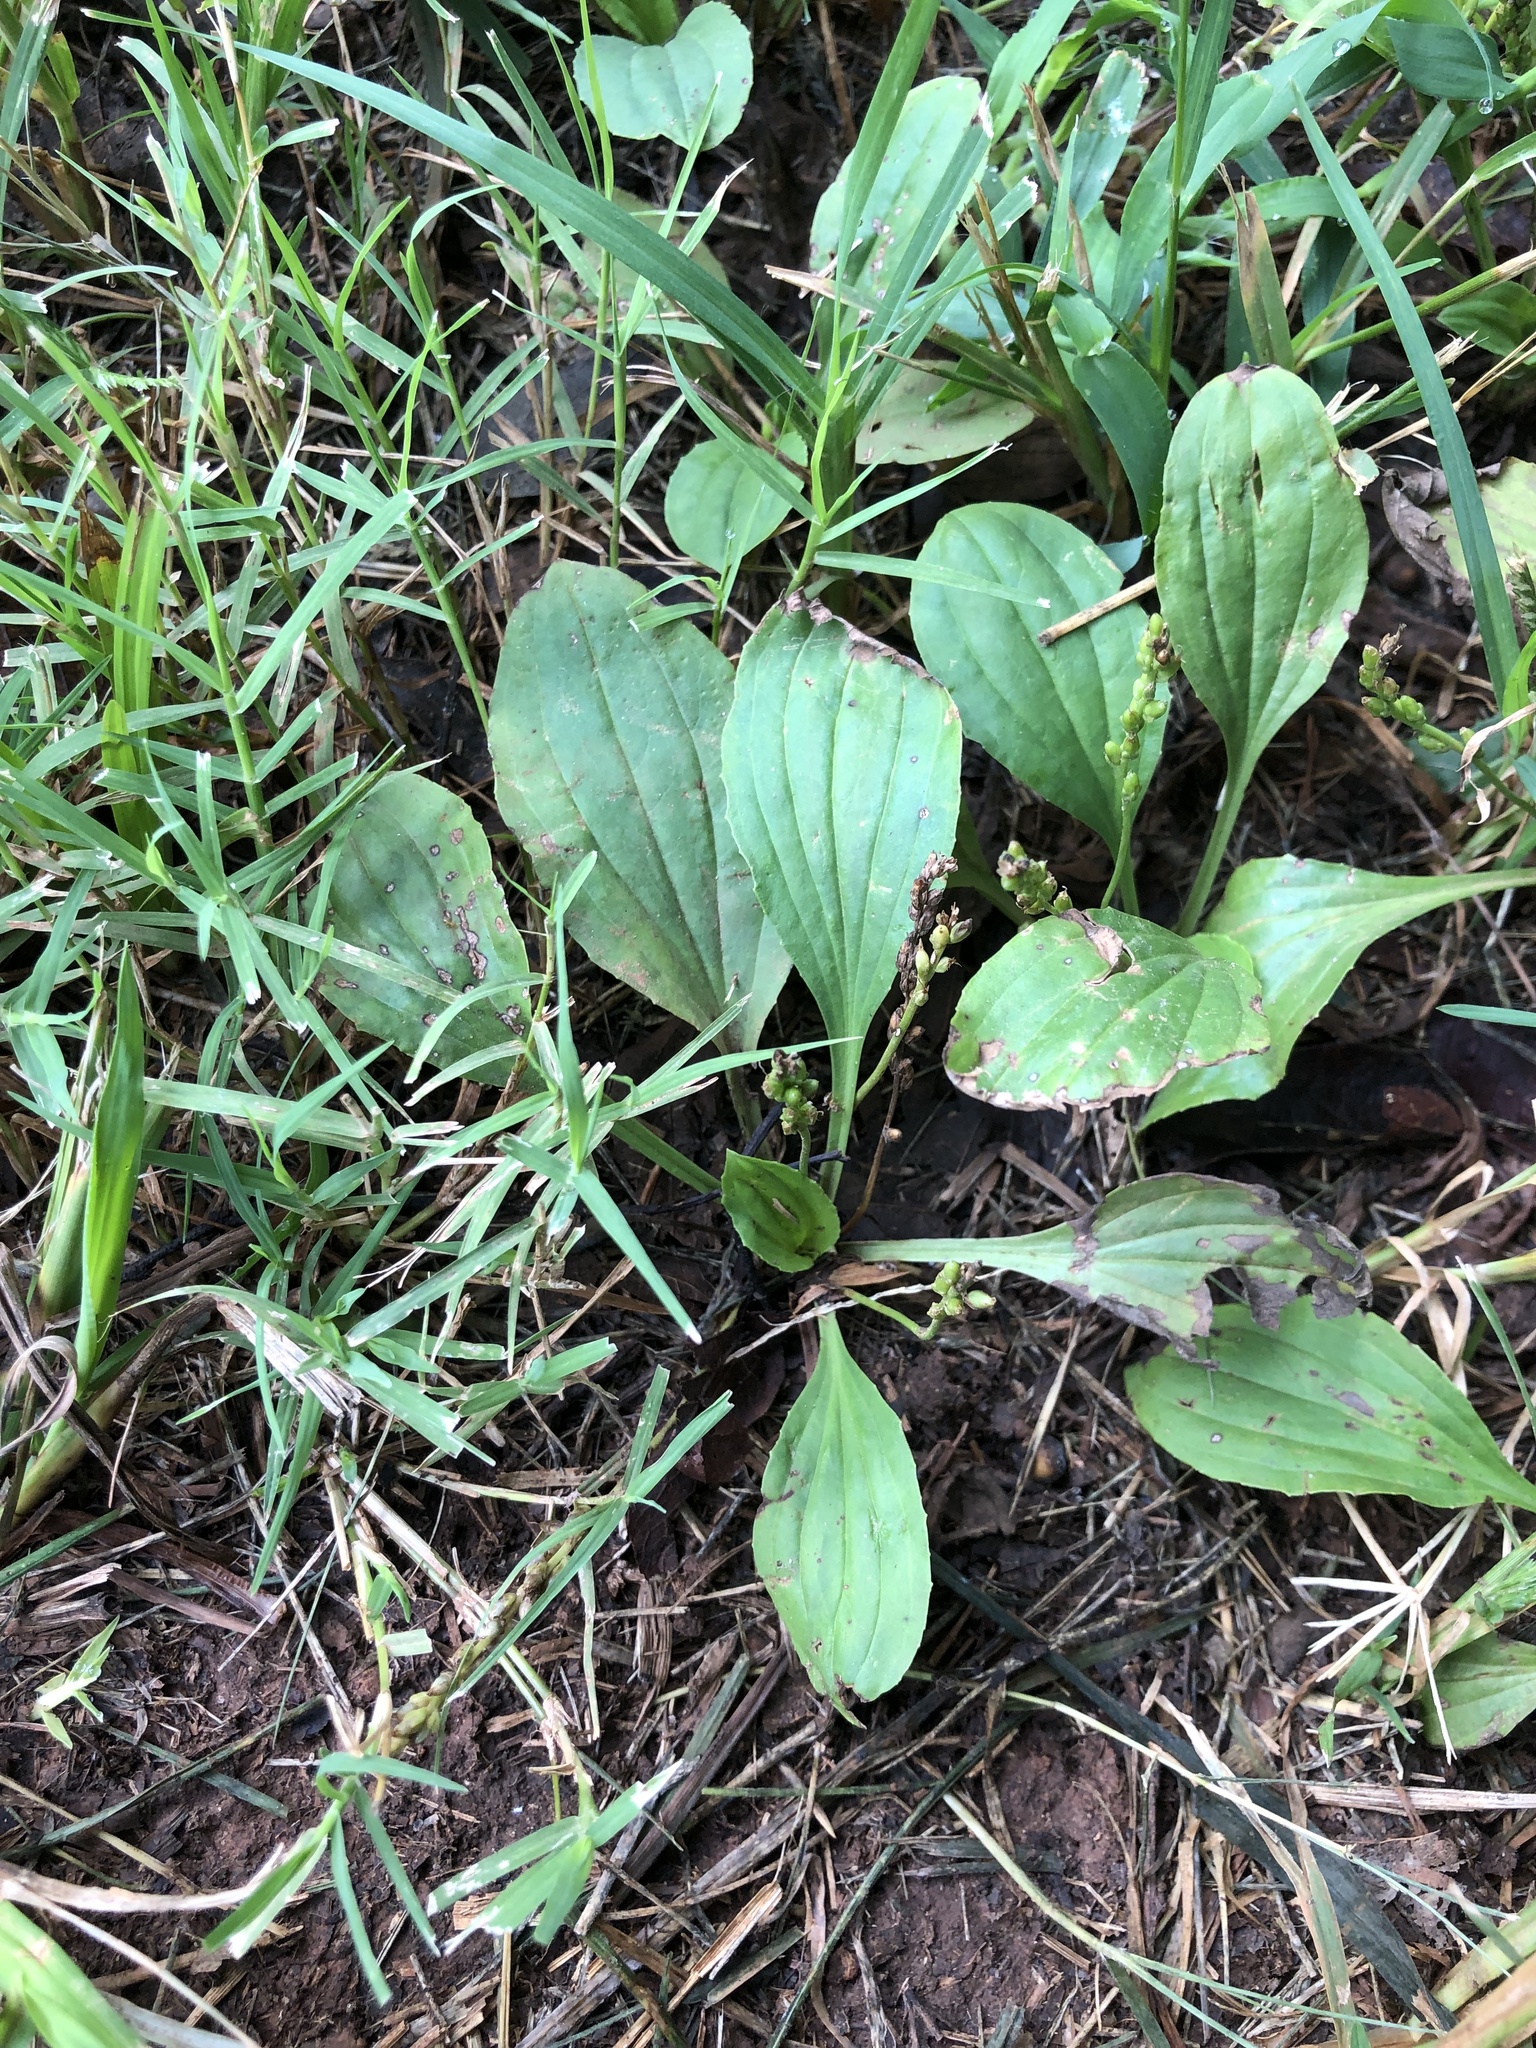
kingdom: Plantae
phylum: Tracheophyta
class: Magnoliopsida
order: Lamiales
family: Plantaginaceae
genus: Plantago
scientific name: Plantago rugelii
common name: American plantain
